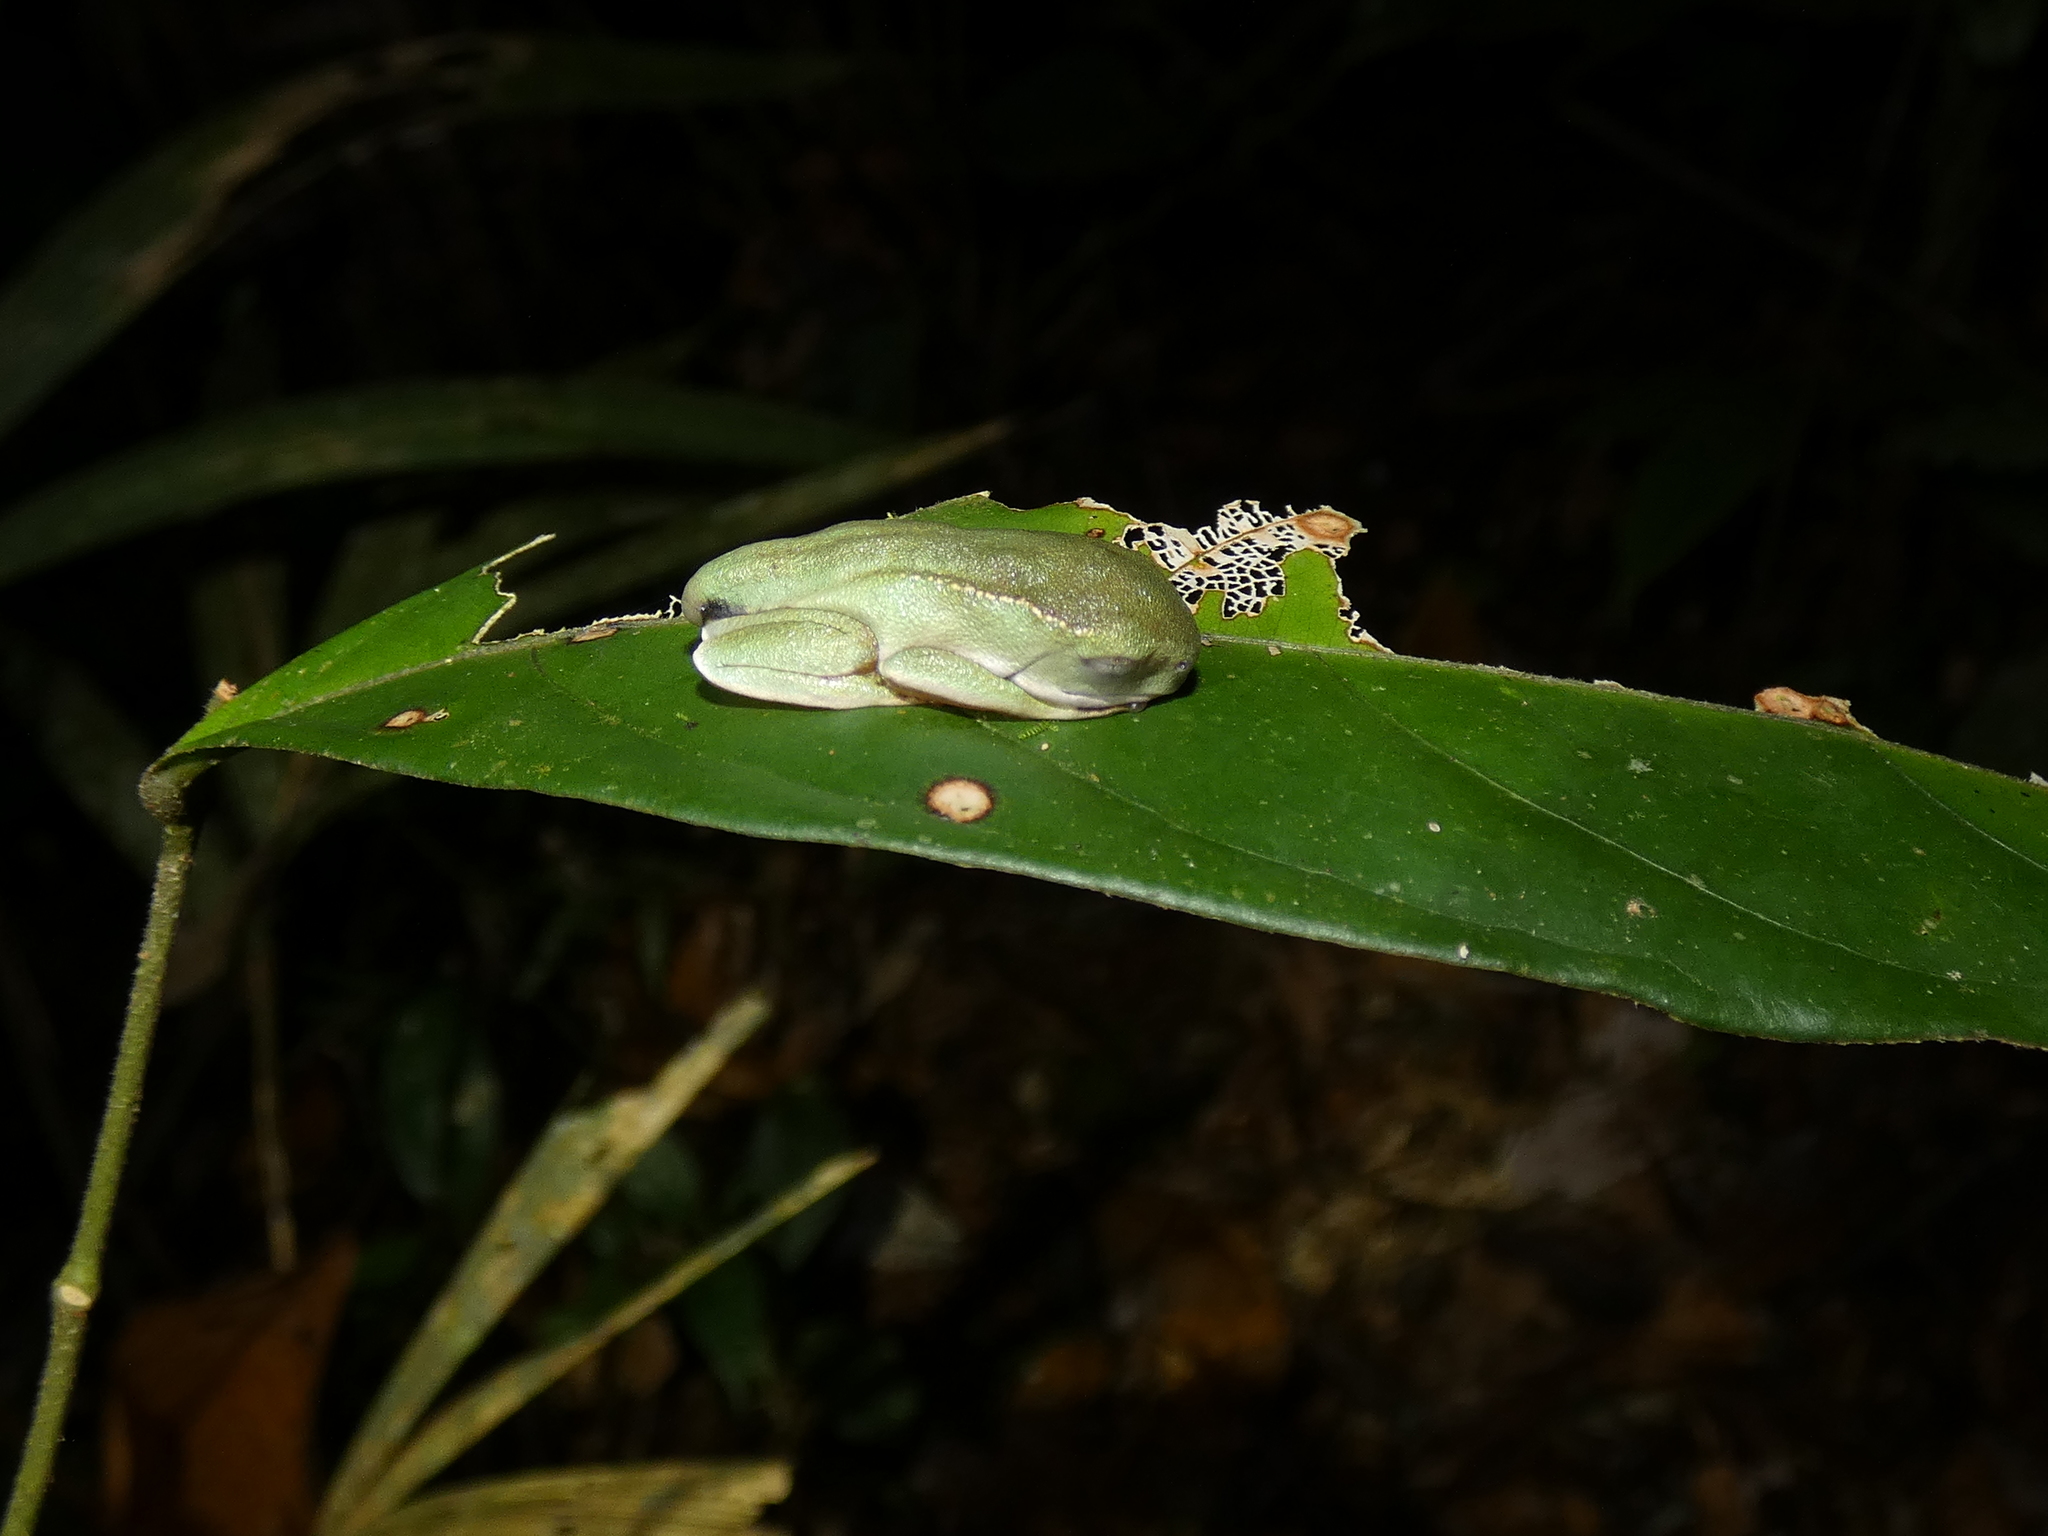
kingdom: Animalia
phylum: Chordata
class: Amphibia
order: Anura
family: Phyllomedusidae
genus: Phyllomedusa
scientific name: Phyllomedusa vaillantii
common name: White-lined leaf frog
